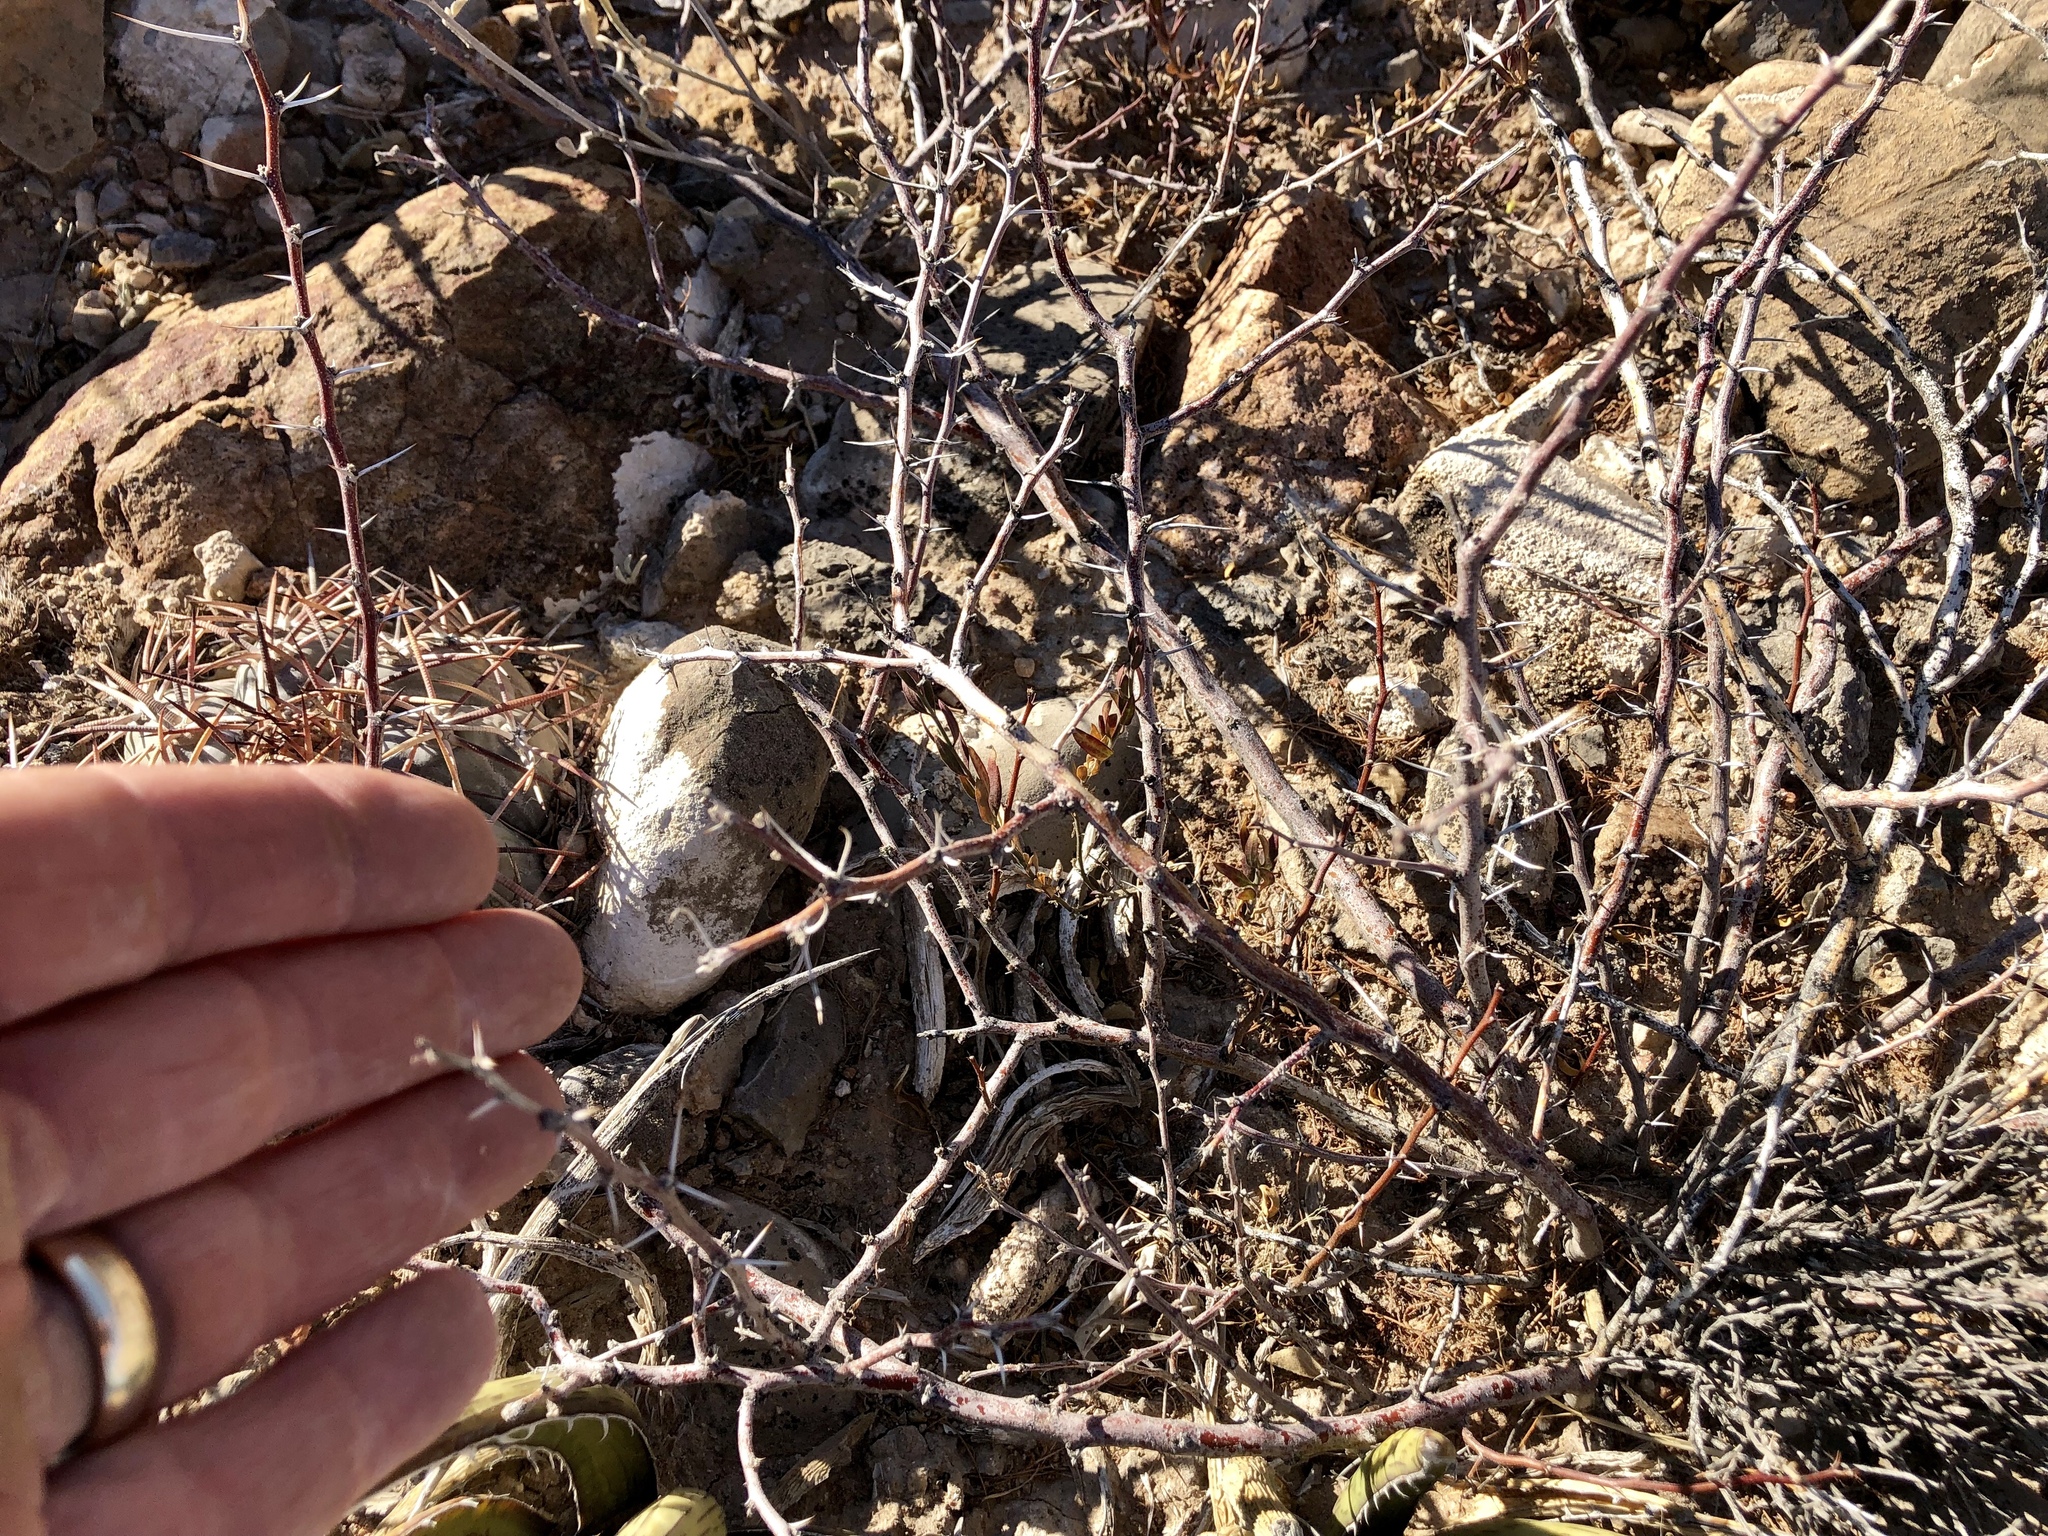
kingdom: Plantae
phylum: Tracheophyta
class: Magnoliopsida
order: Fabales
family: Fabaceae
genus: Vachellia
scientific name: Vachellia constricta
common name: Mescat acacia
